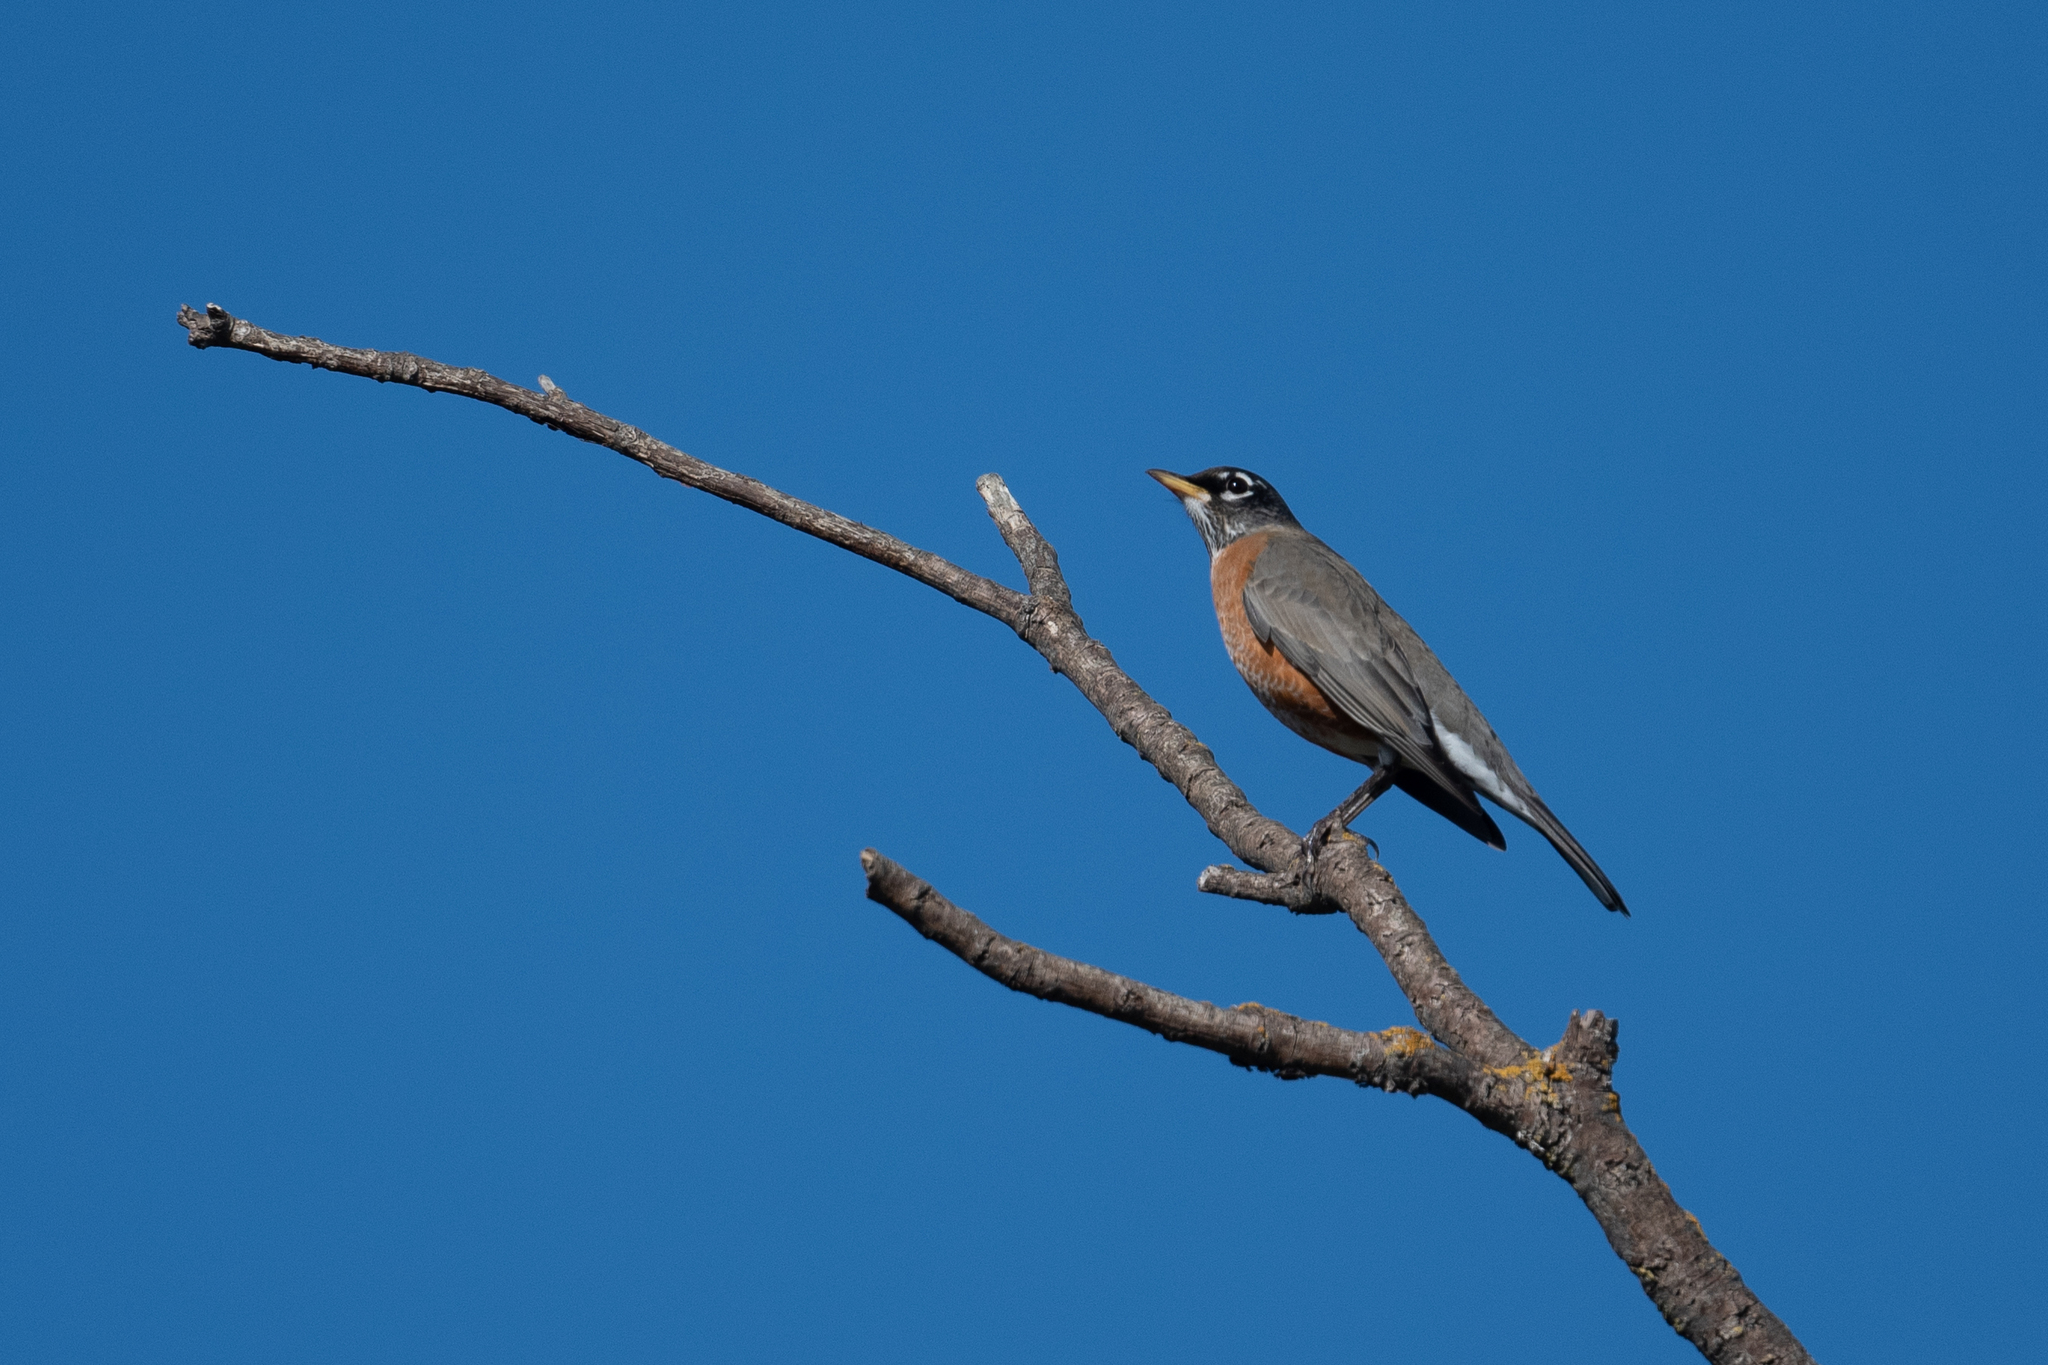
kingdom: Animalia
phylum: Chordata
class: Aves
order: Passeriformes
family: Turdidae
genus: Turdus
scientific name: Turdus migratorius
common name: American robin
